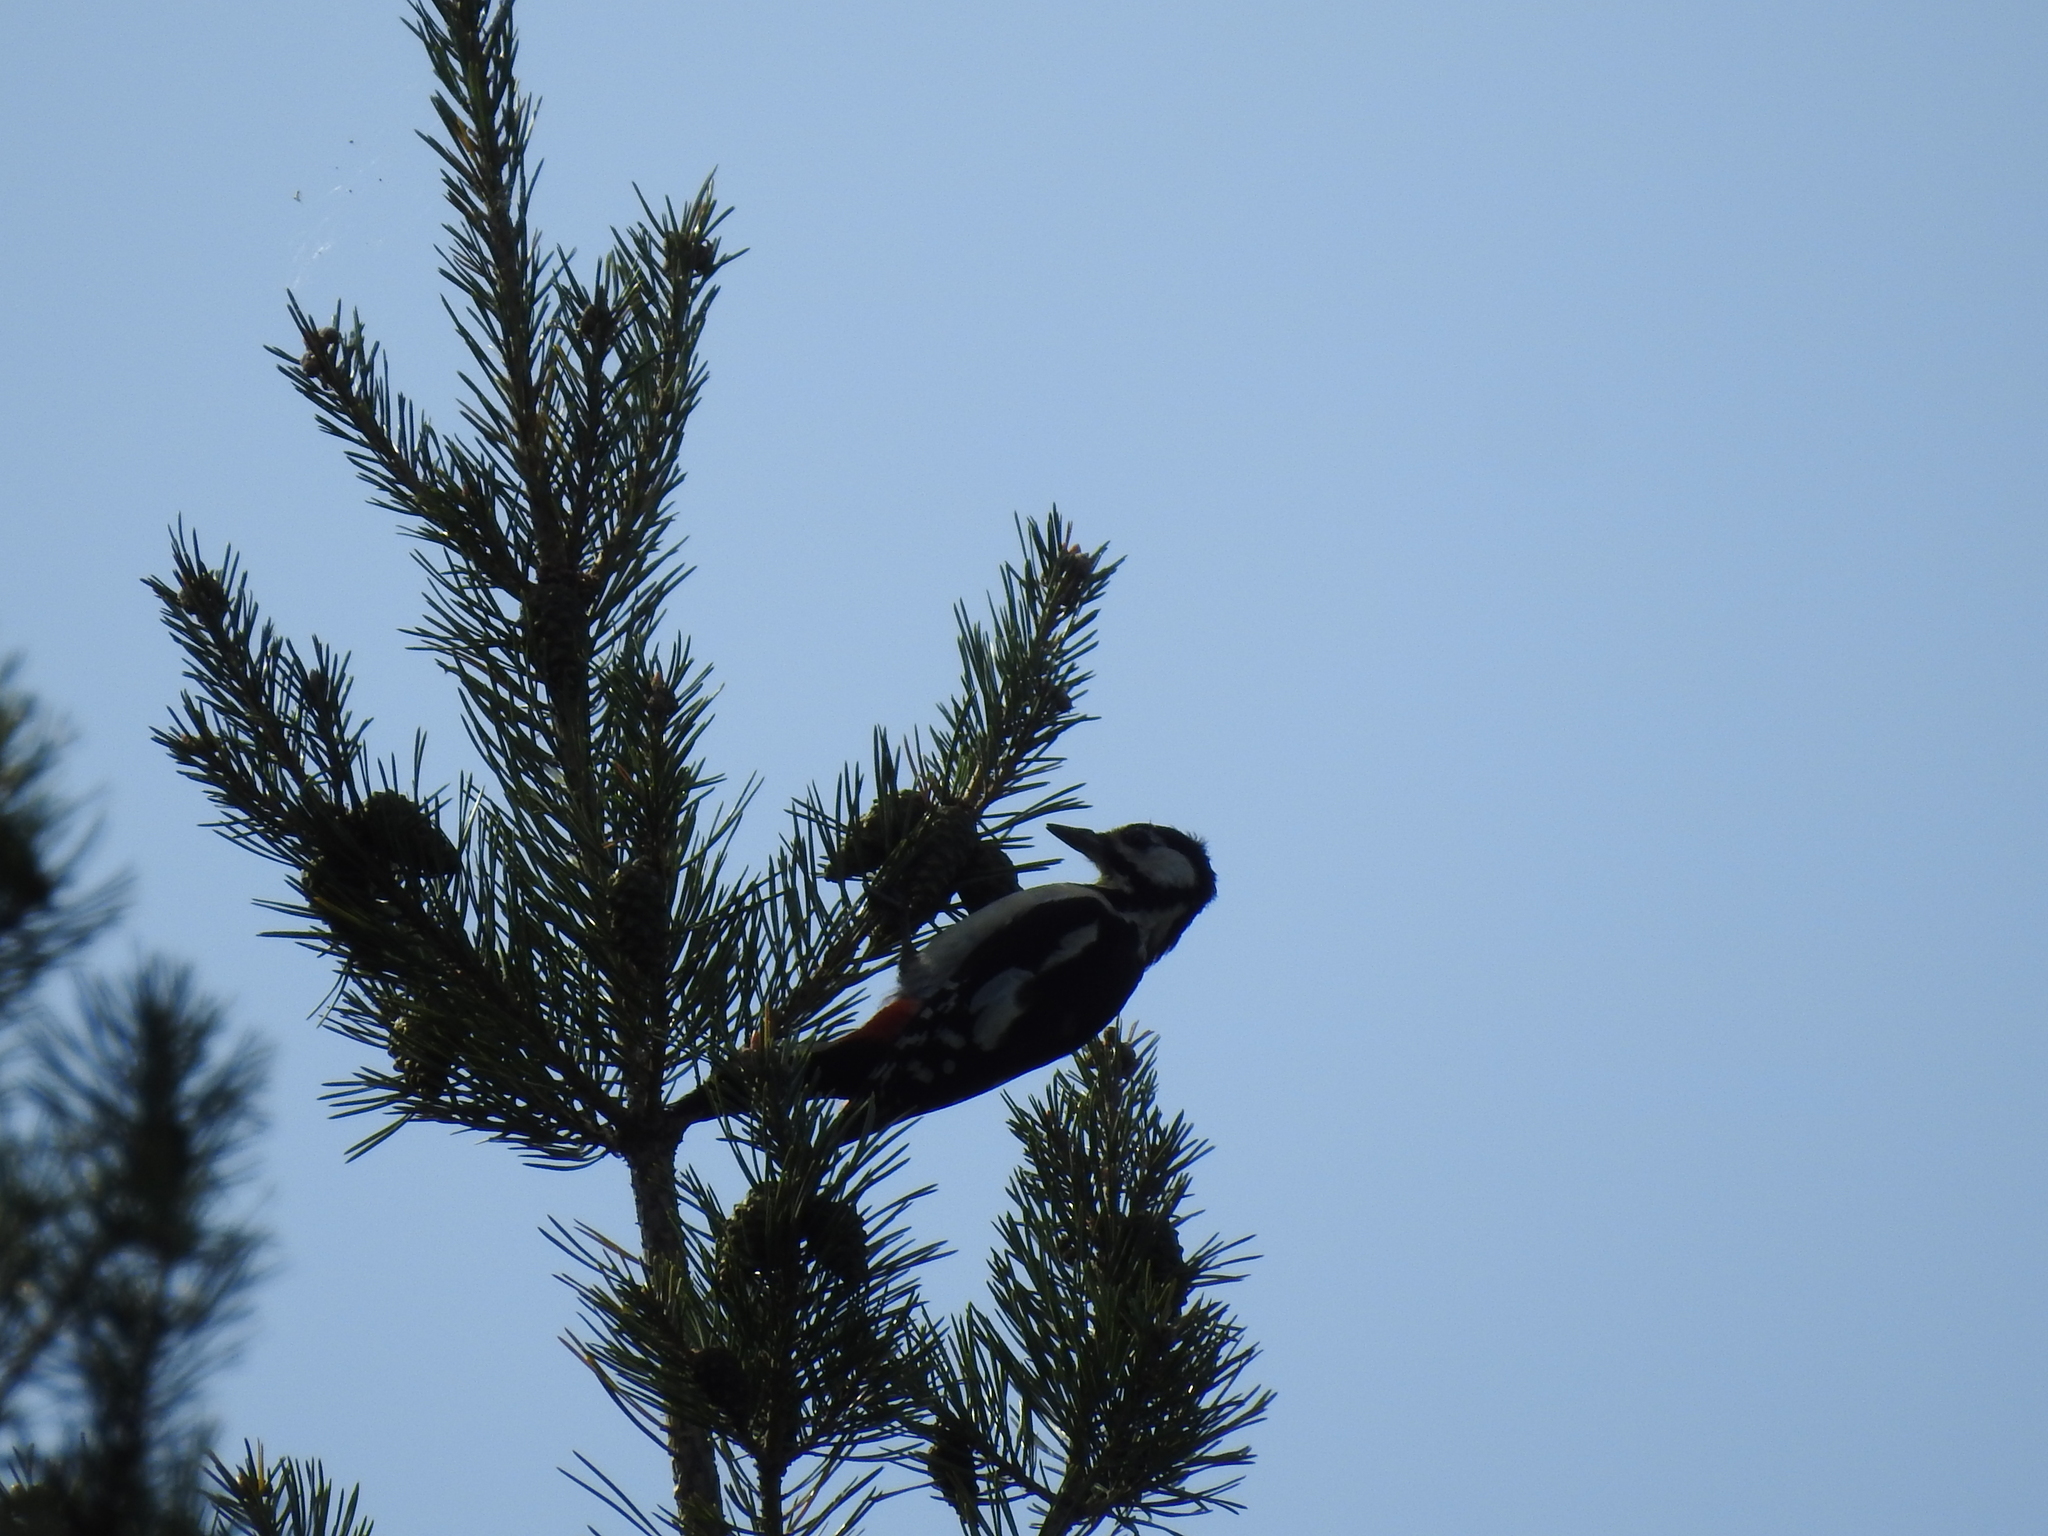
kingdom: Animalia
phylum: Chordata
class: Aves
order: Piciformes
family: Picidae
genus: Dendrocopos
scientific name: Dendrocopos major
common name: Great spotted woodpecker
